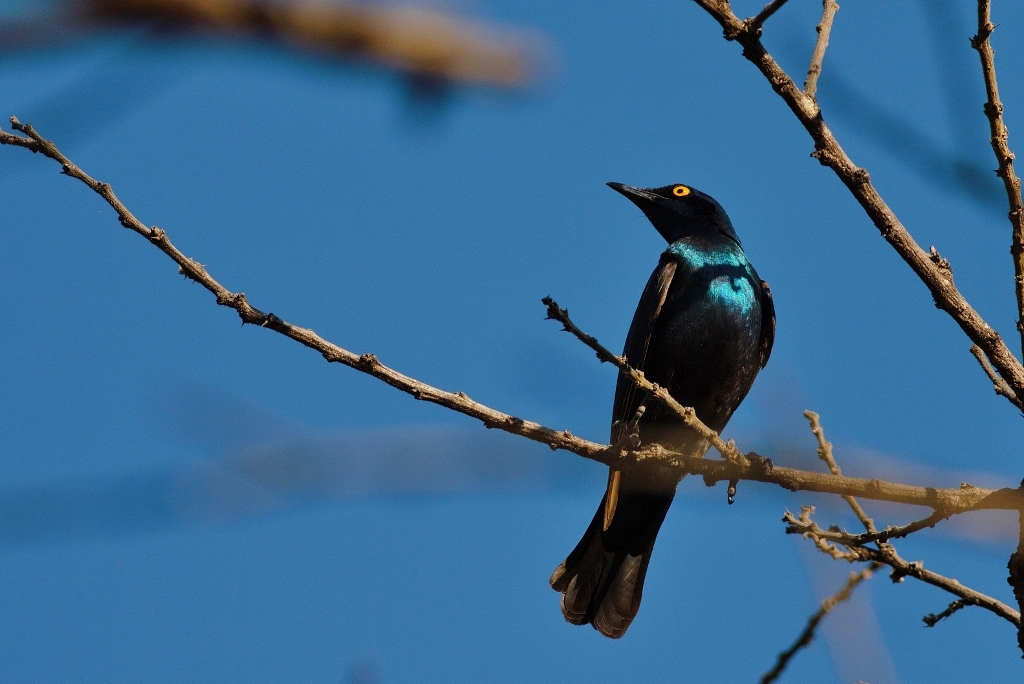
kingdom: Animalia
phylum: Chordata
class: Aves
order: Passeriformes
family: Sturnidae
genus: Lamprotornis
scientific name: Lamprotornis chloropterus
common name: Lesser blue-eared starling
